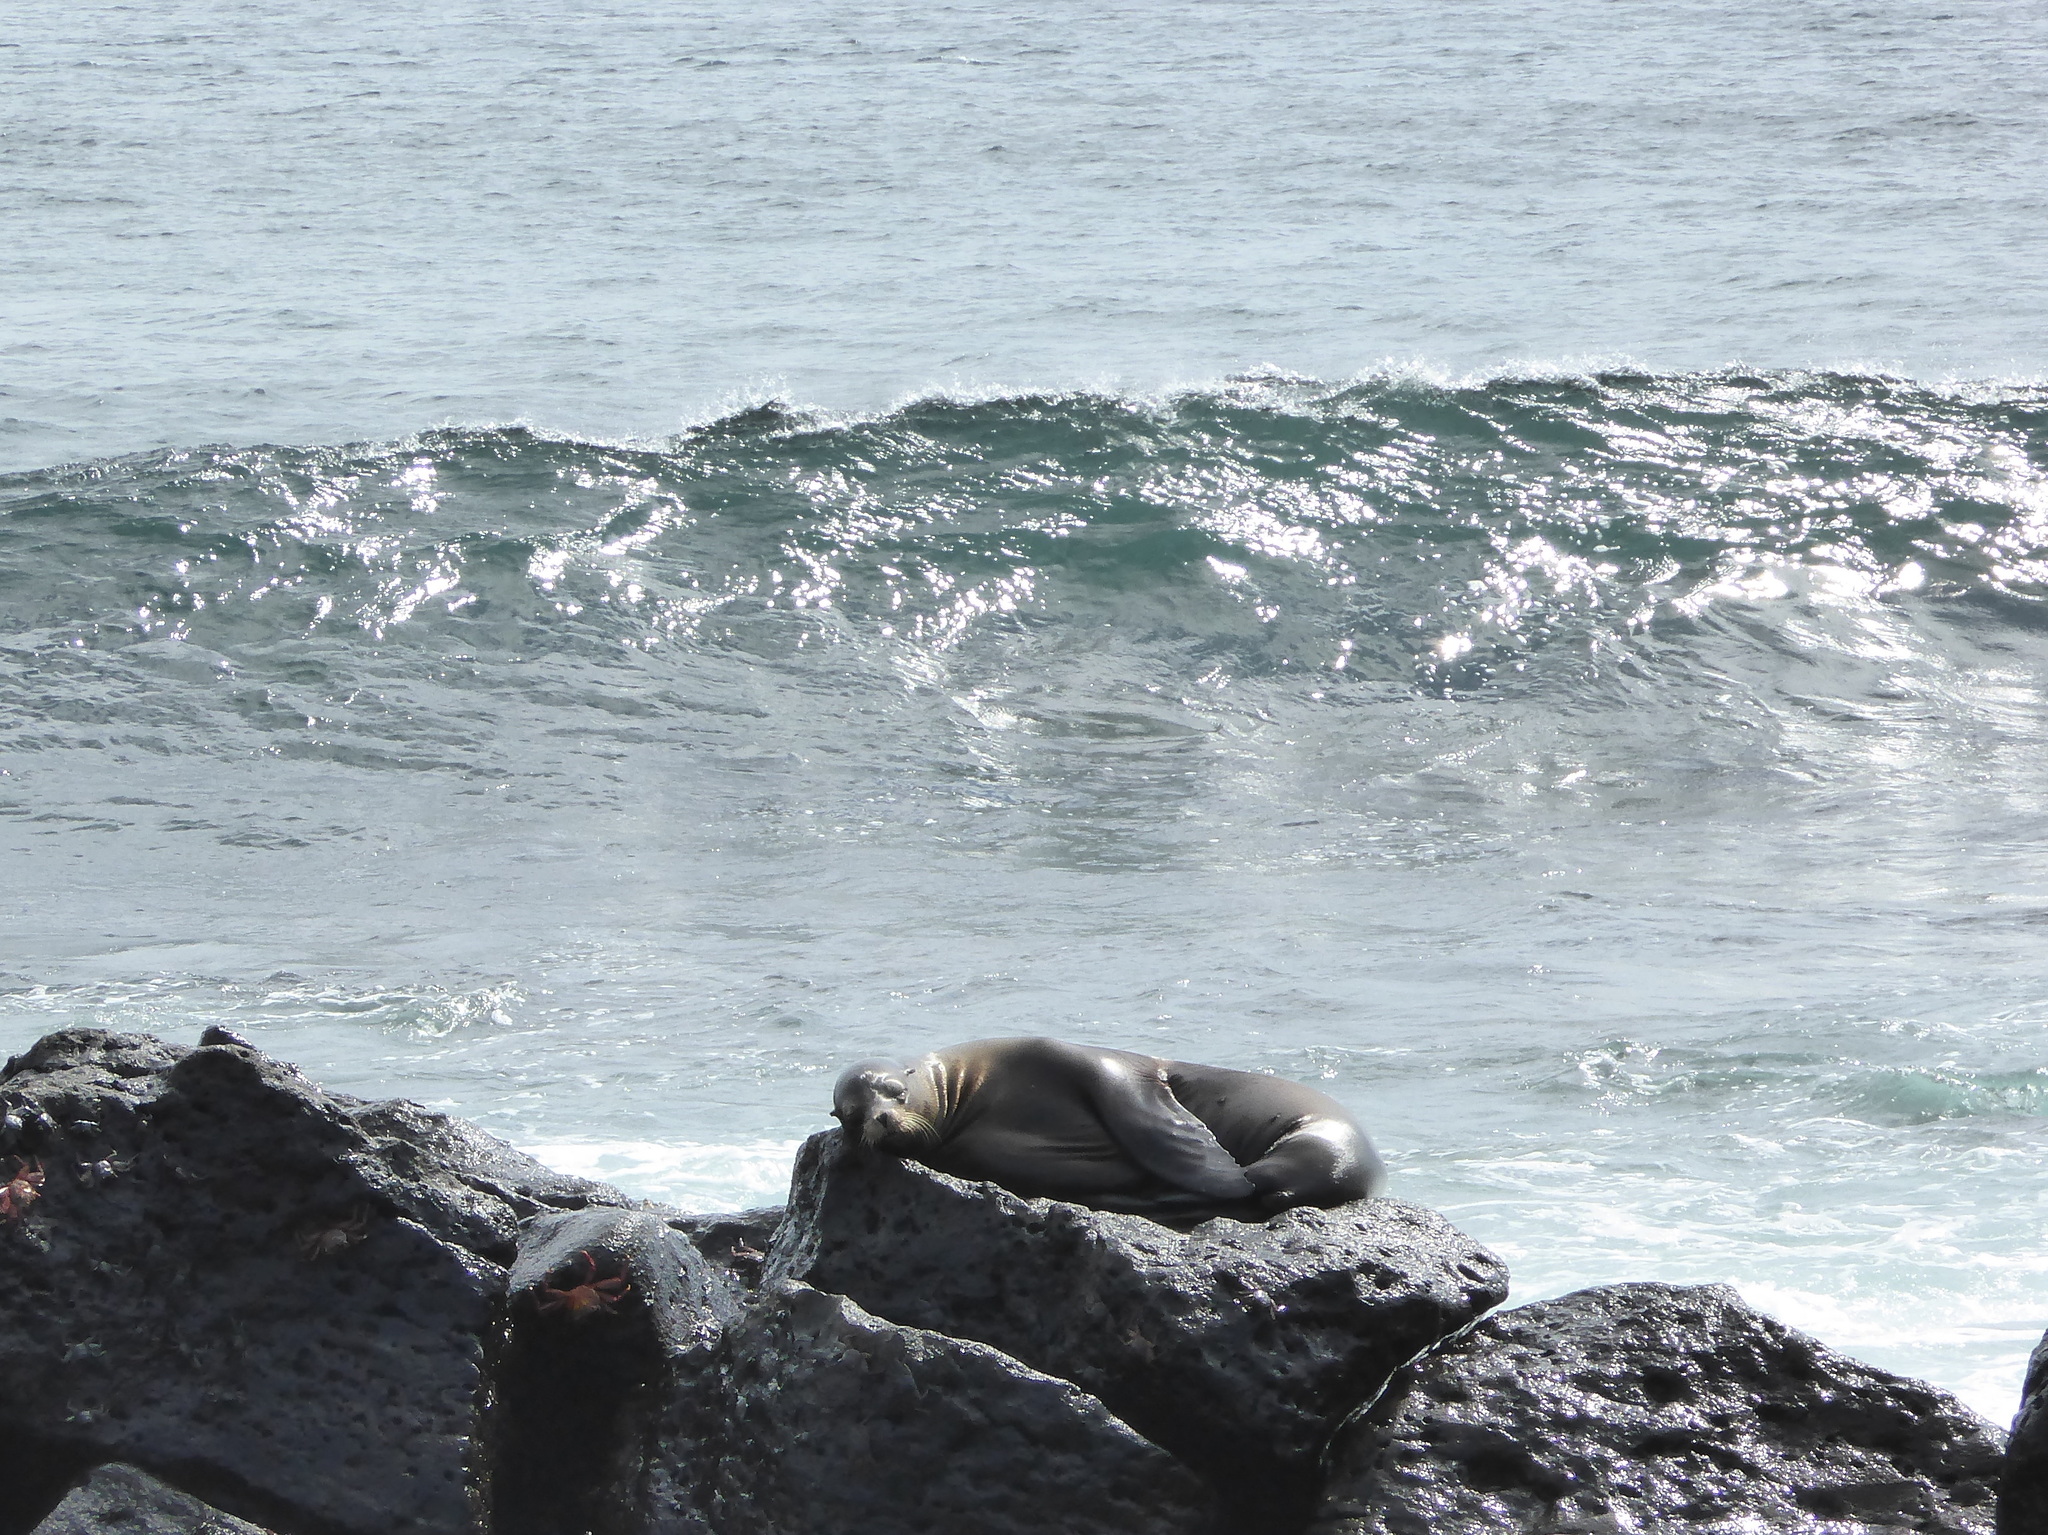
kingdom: Animalia
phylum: Chordata
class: Mammalia
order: Carnivora
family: Otariidae
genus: Zalophus
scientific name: Zalophus wollebaeki
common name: Galapagos sea lion
